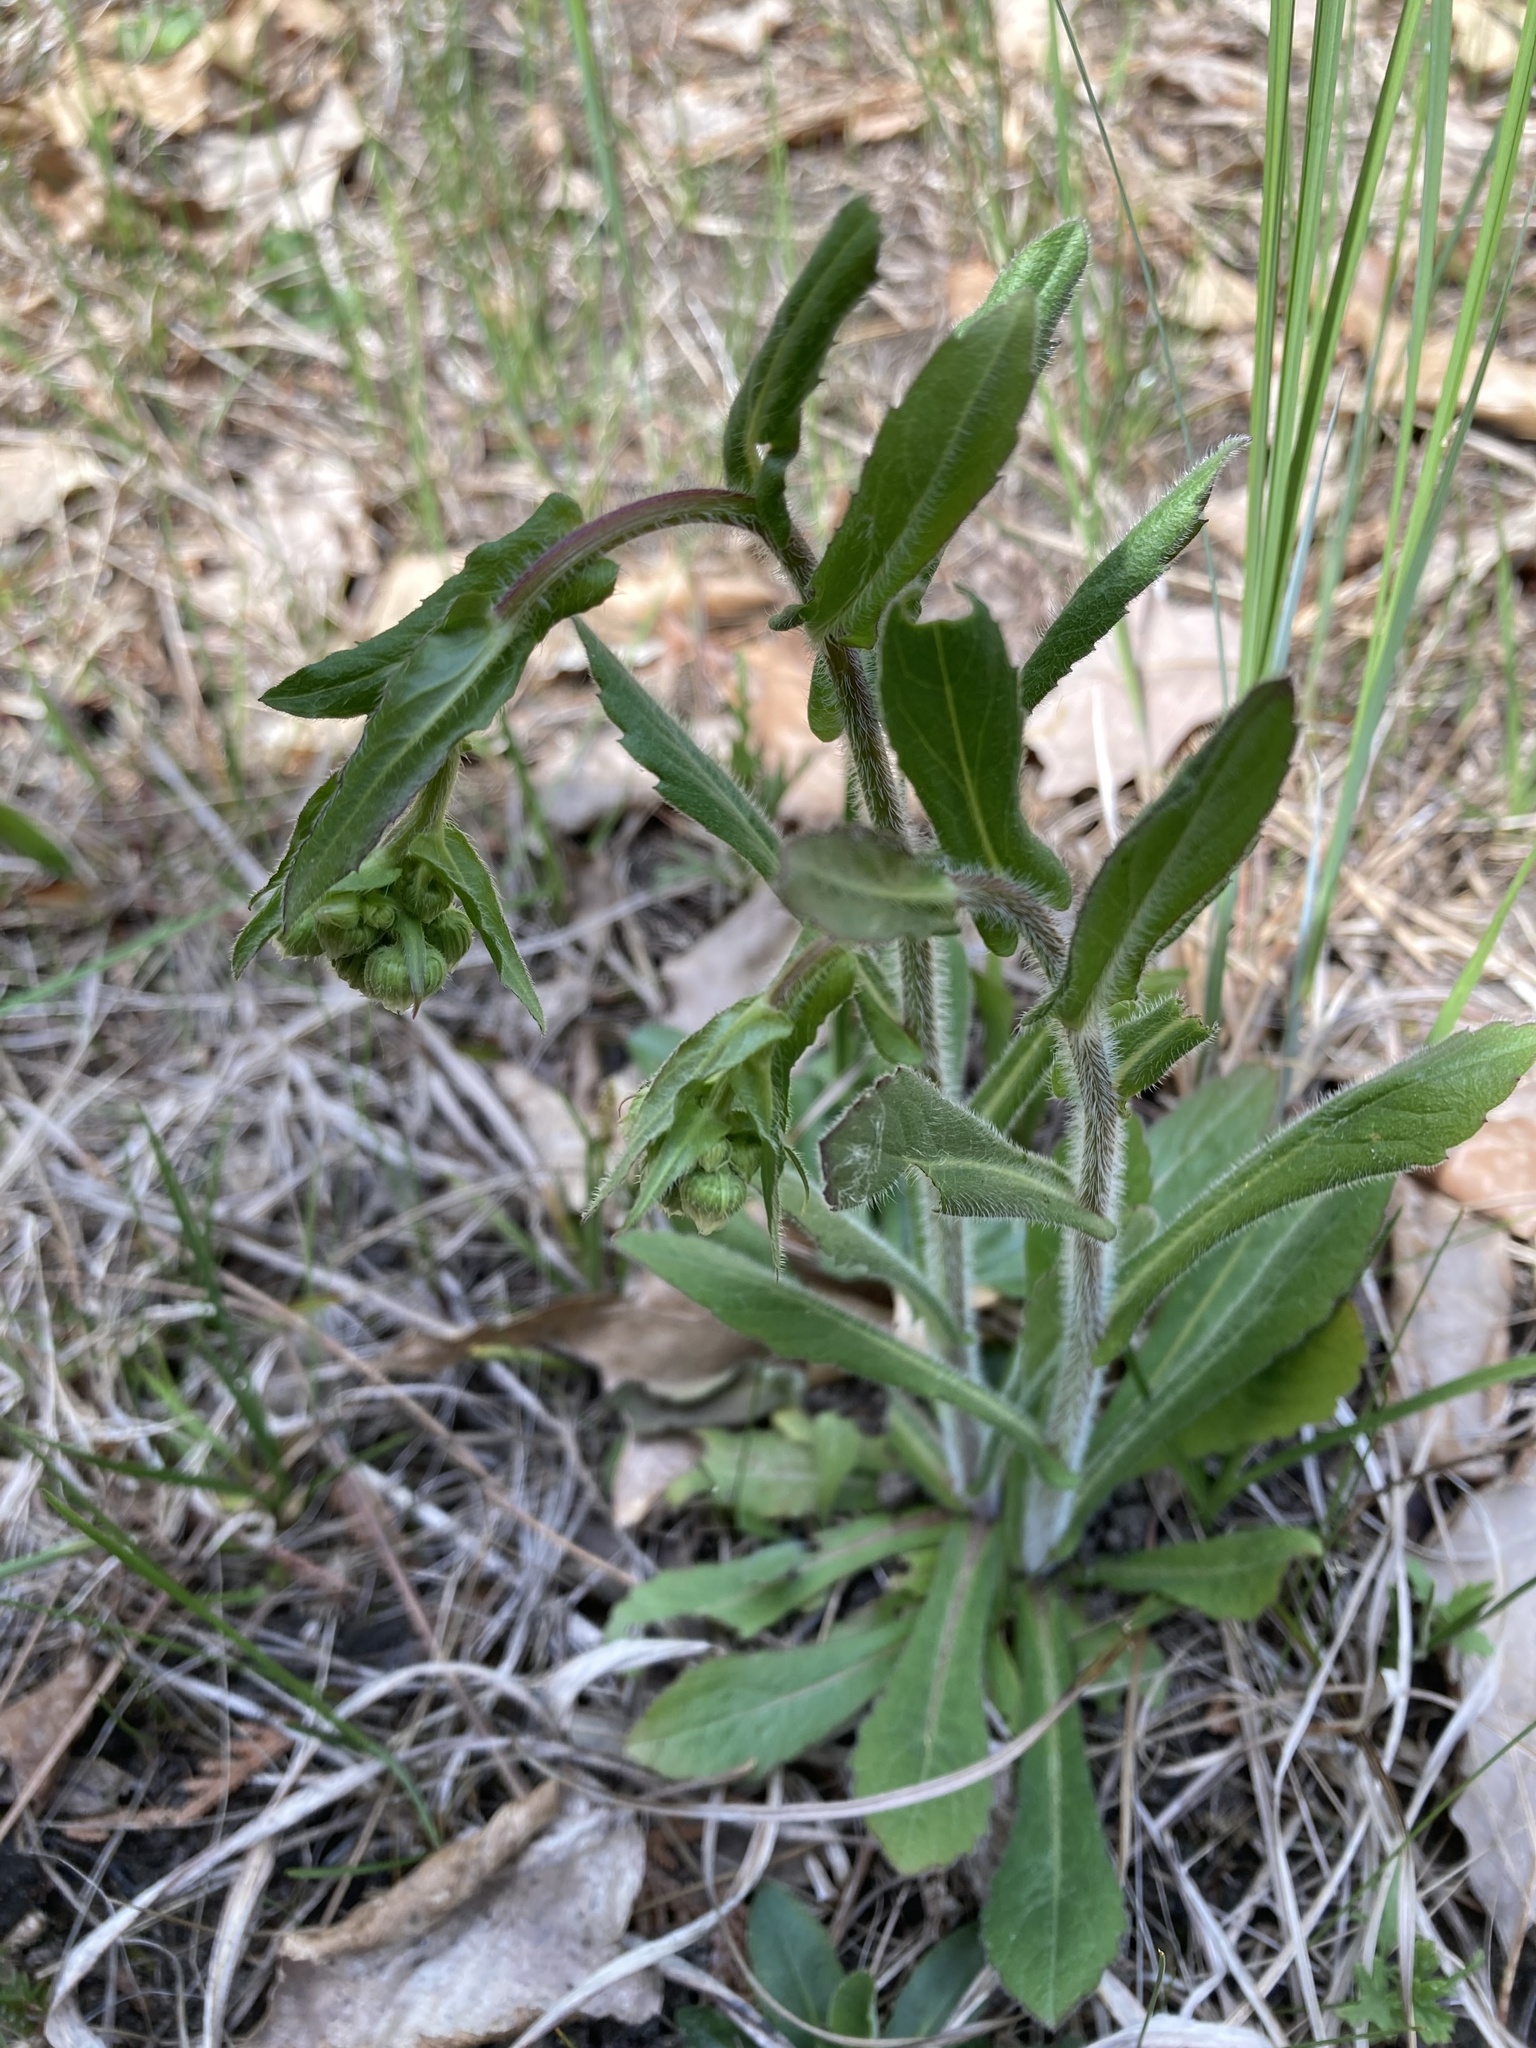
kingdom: Plantae
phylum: Tracheophyta
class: Magnoliopsida
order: Asterales
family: Asteraceae
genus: Erigeron
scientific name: Erigeron philadelphicus
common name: Robin's-plantain
